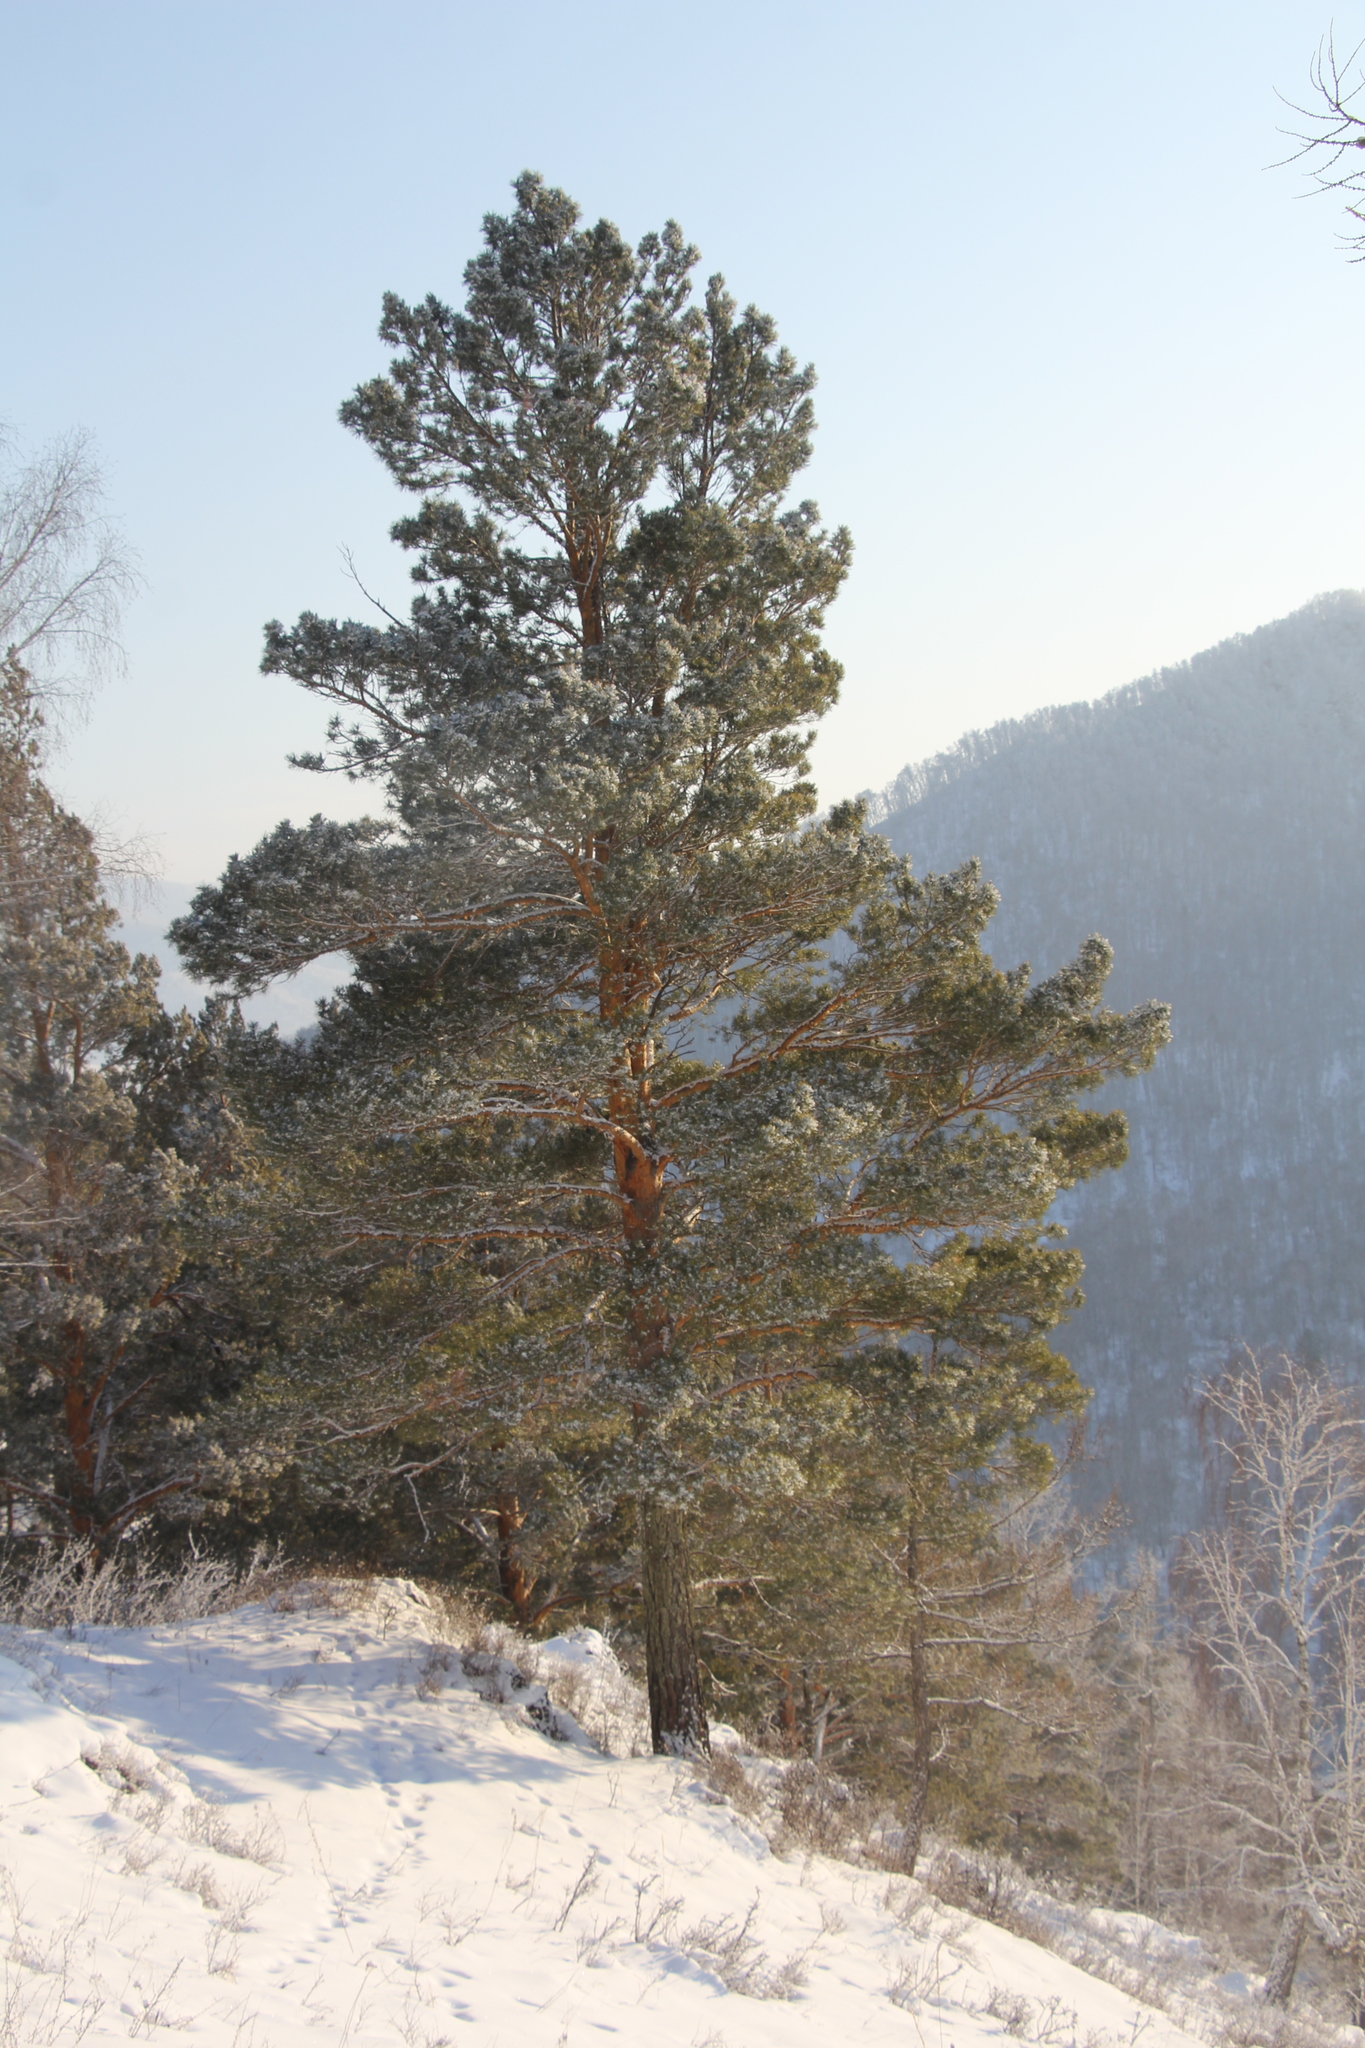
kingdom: Plantae
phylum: Tracheophyta
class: Pinopsida
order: Pinales
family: Pinaceae
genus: Pinus
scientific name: Pinus sylvestris
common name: Scots pine
